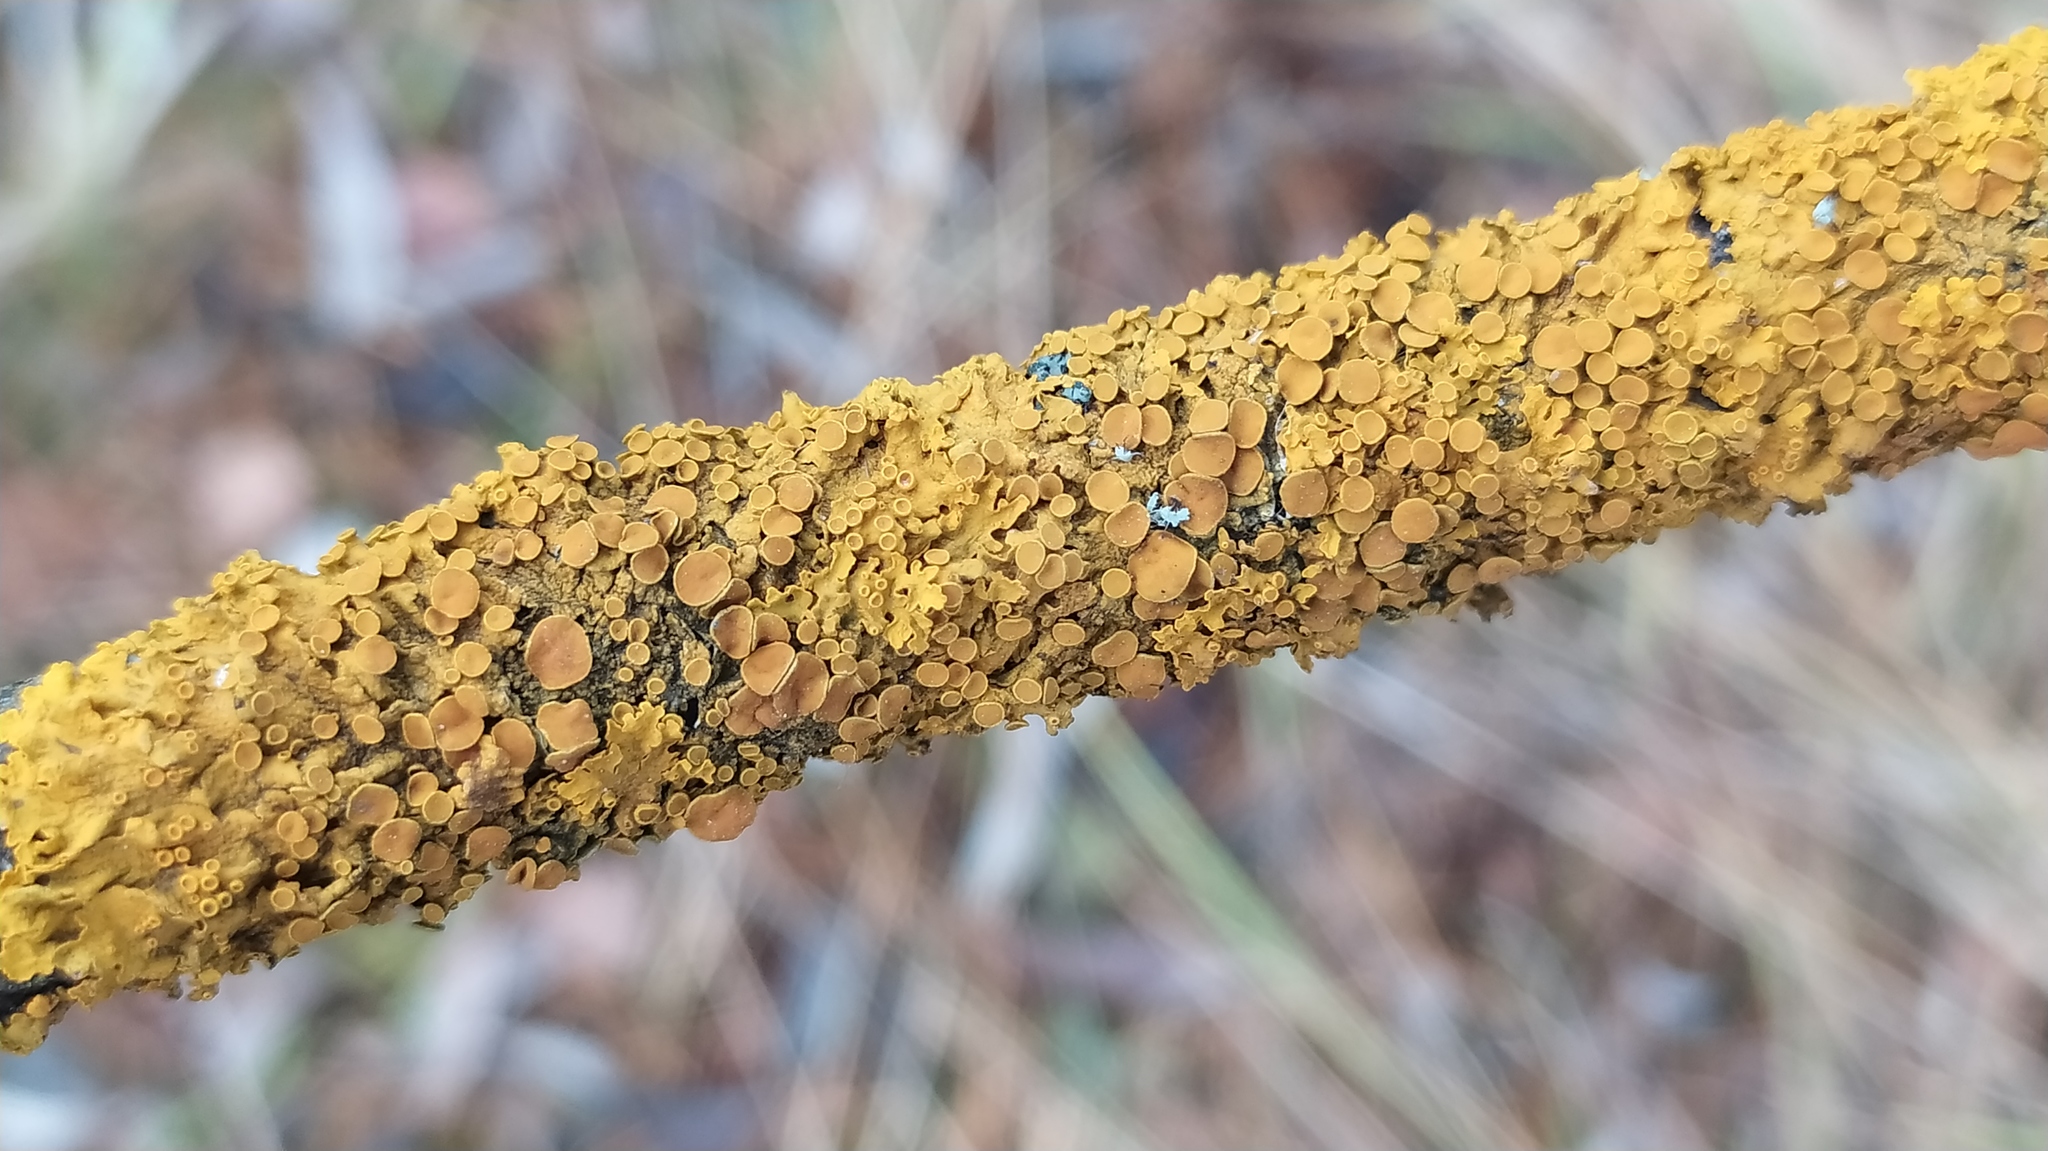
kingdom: Fungi
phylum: Ascomycota
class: Lecanoromycetes
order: Teloschistales
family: Teloschistaceae
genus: Xanthoria
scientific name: Xanthoria parietina
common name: Common orange lichen
